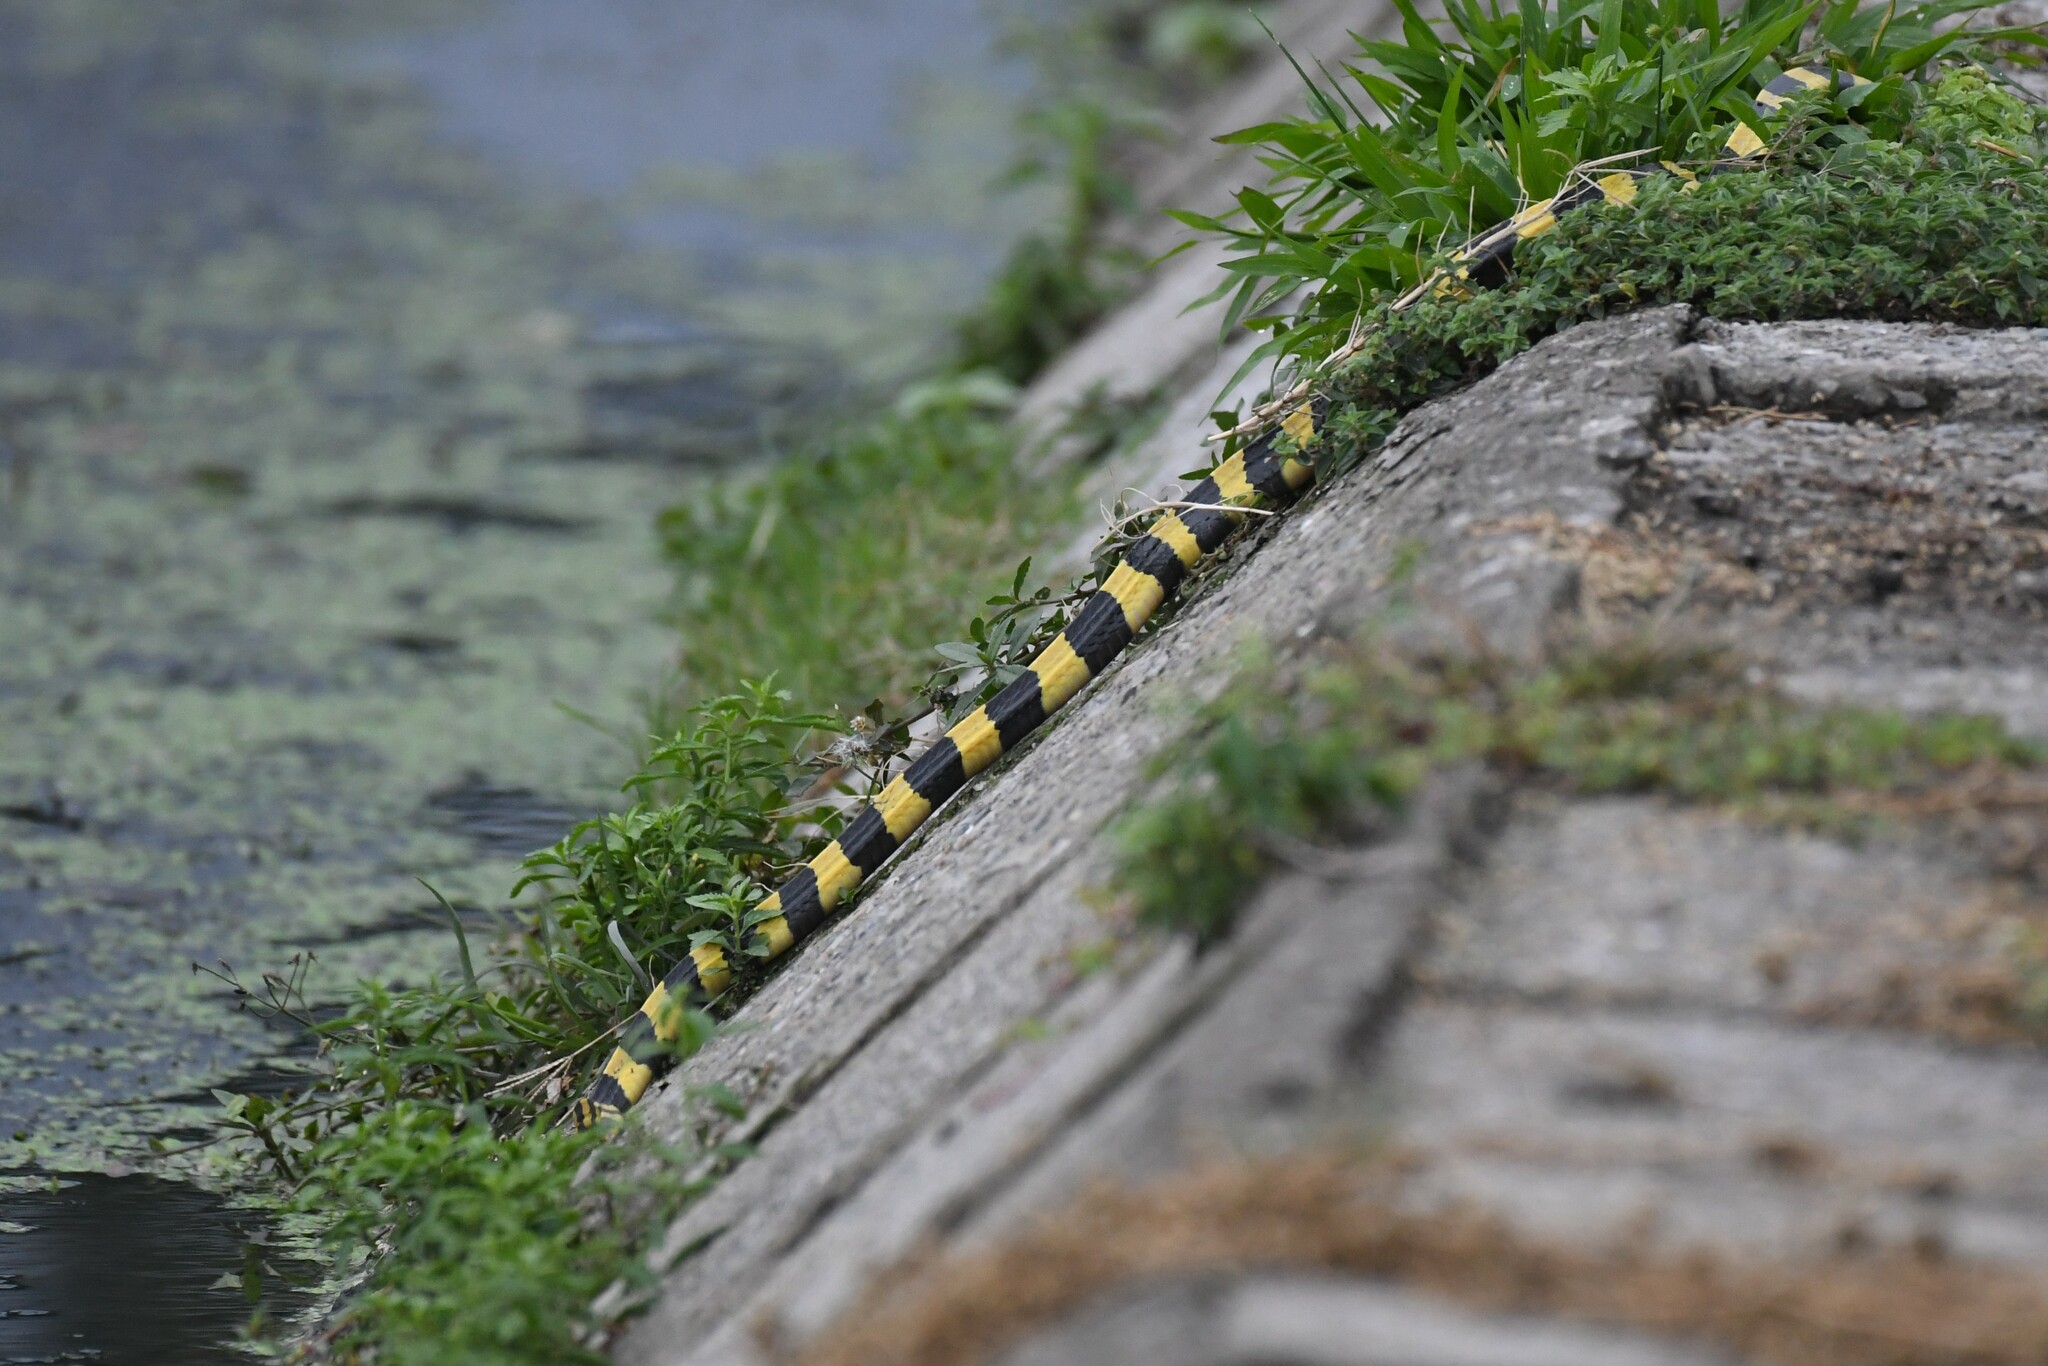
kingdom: Animalia
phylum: Chordata
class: Squamata
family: Elapidae
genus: Bungarus
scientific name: Bungarus fasciatus
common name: Banded krait
